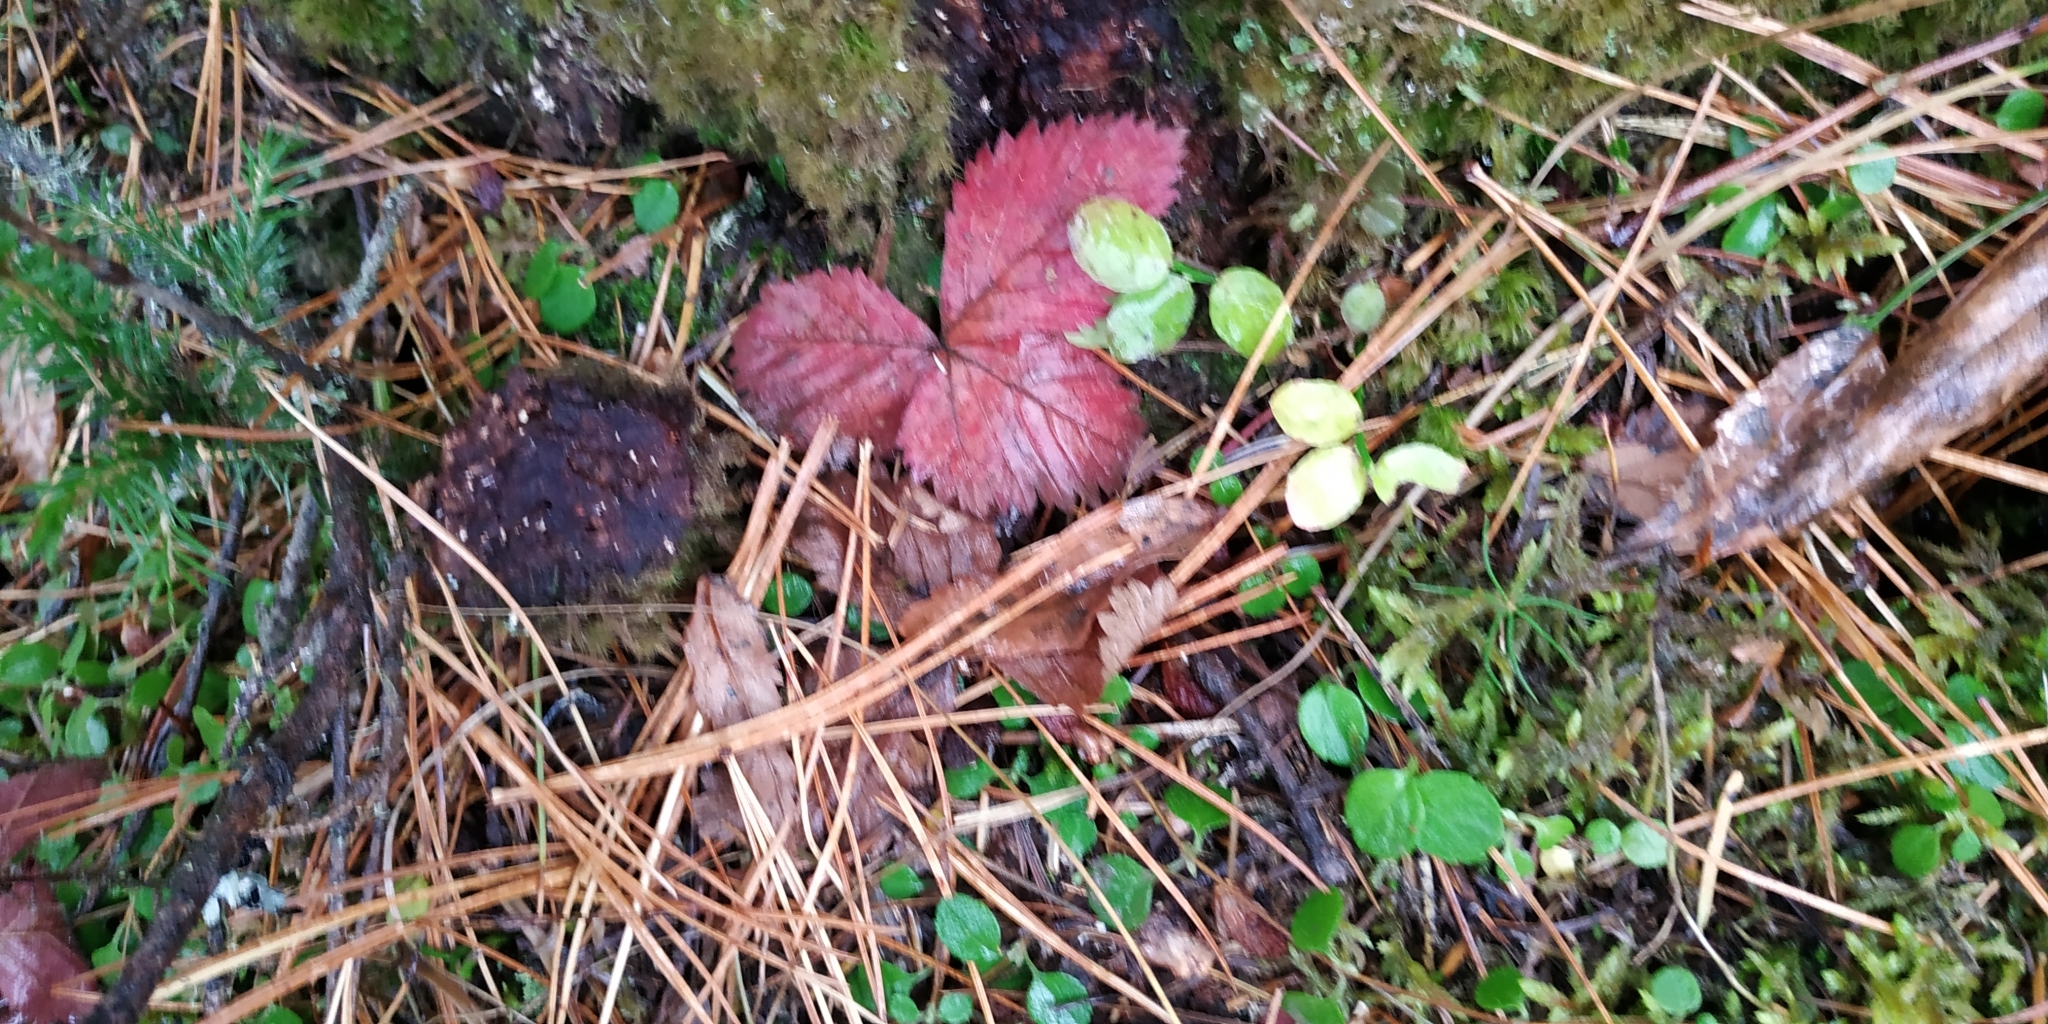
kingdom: Plantae
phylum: Tracheophyta
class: Magnoliopsida
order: Rosales
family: Rosaceae
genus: Rubus
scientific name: Rubus arcticus
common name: Arctic bramble
